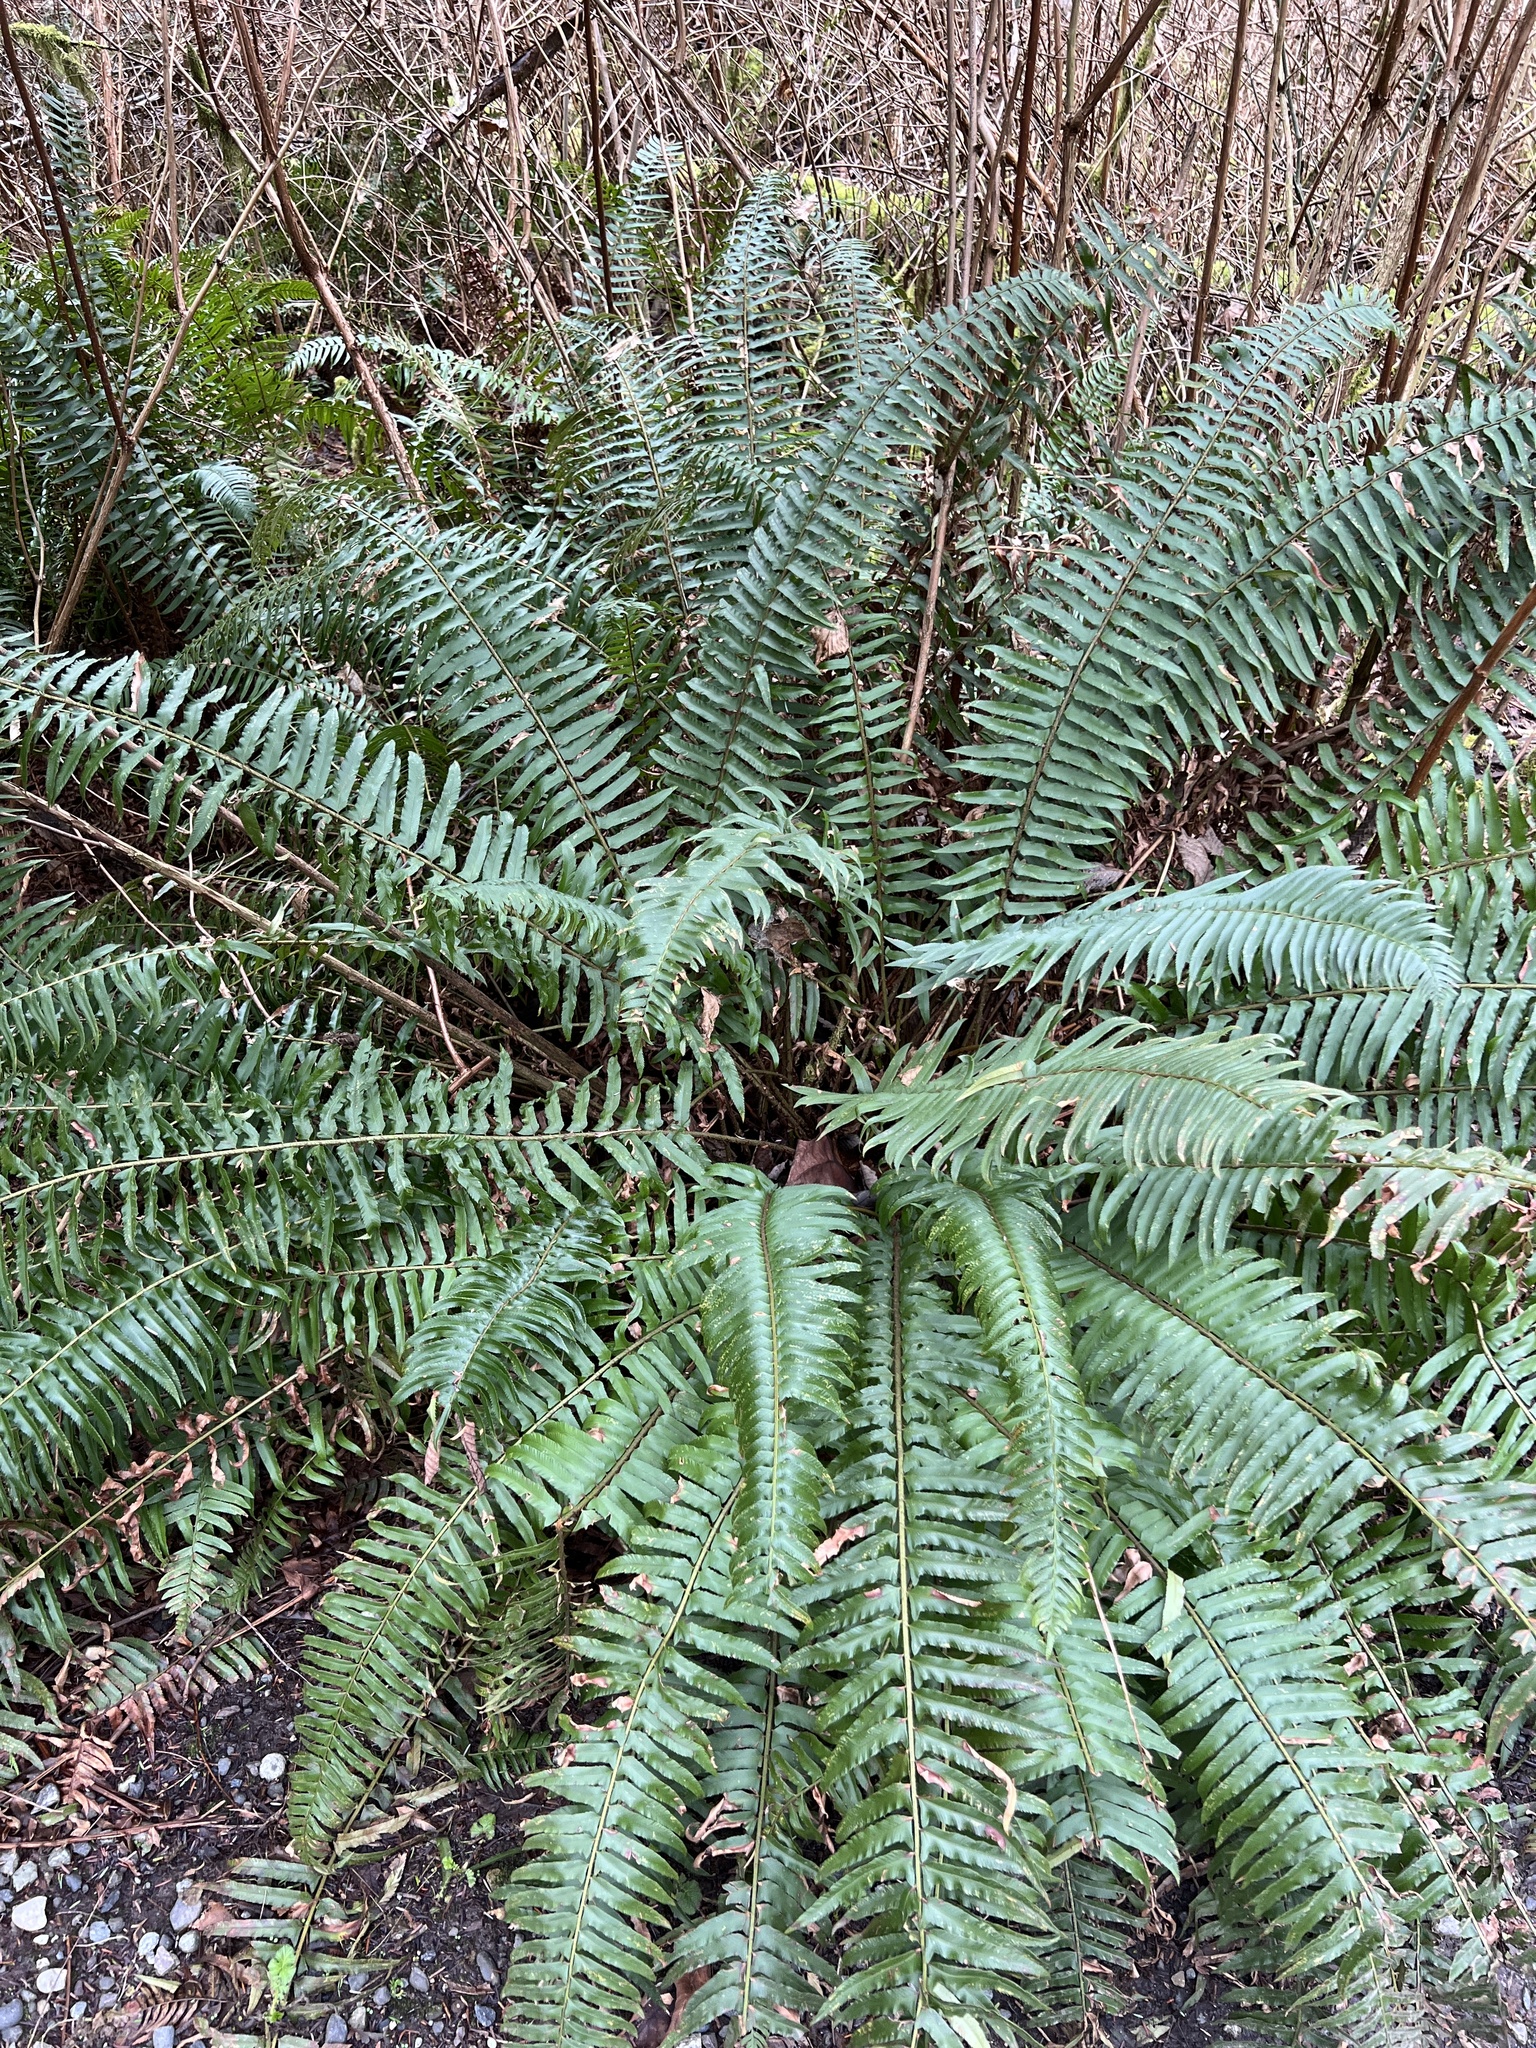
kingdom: Plantae
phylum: Tracheophyta
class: Polypodiopsida
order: Polypodiales
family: Dryopteridaceae
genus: Polystichum
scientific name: Polystichum munitum
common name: Western sword-fern
